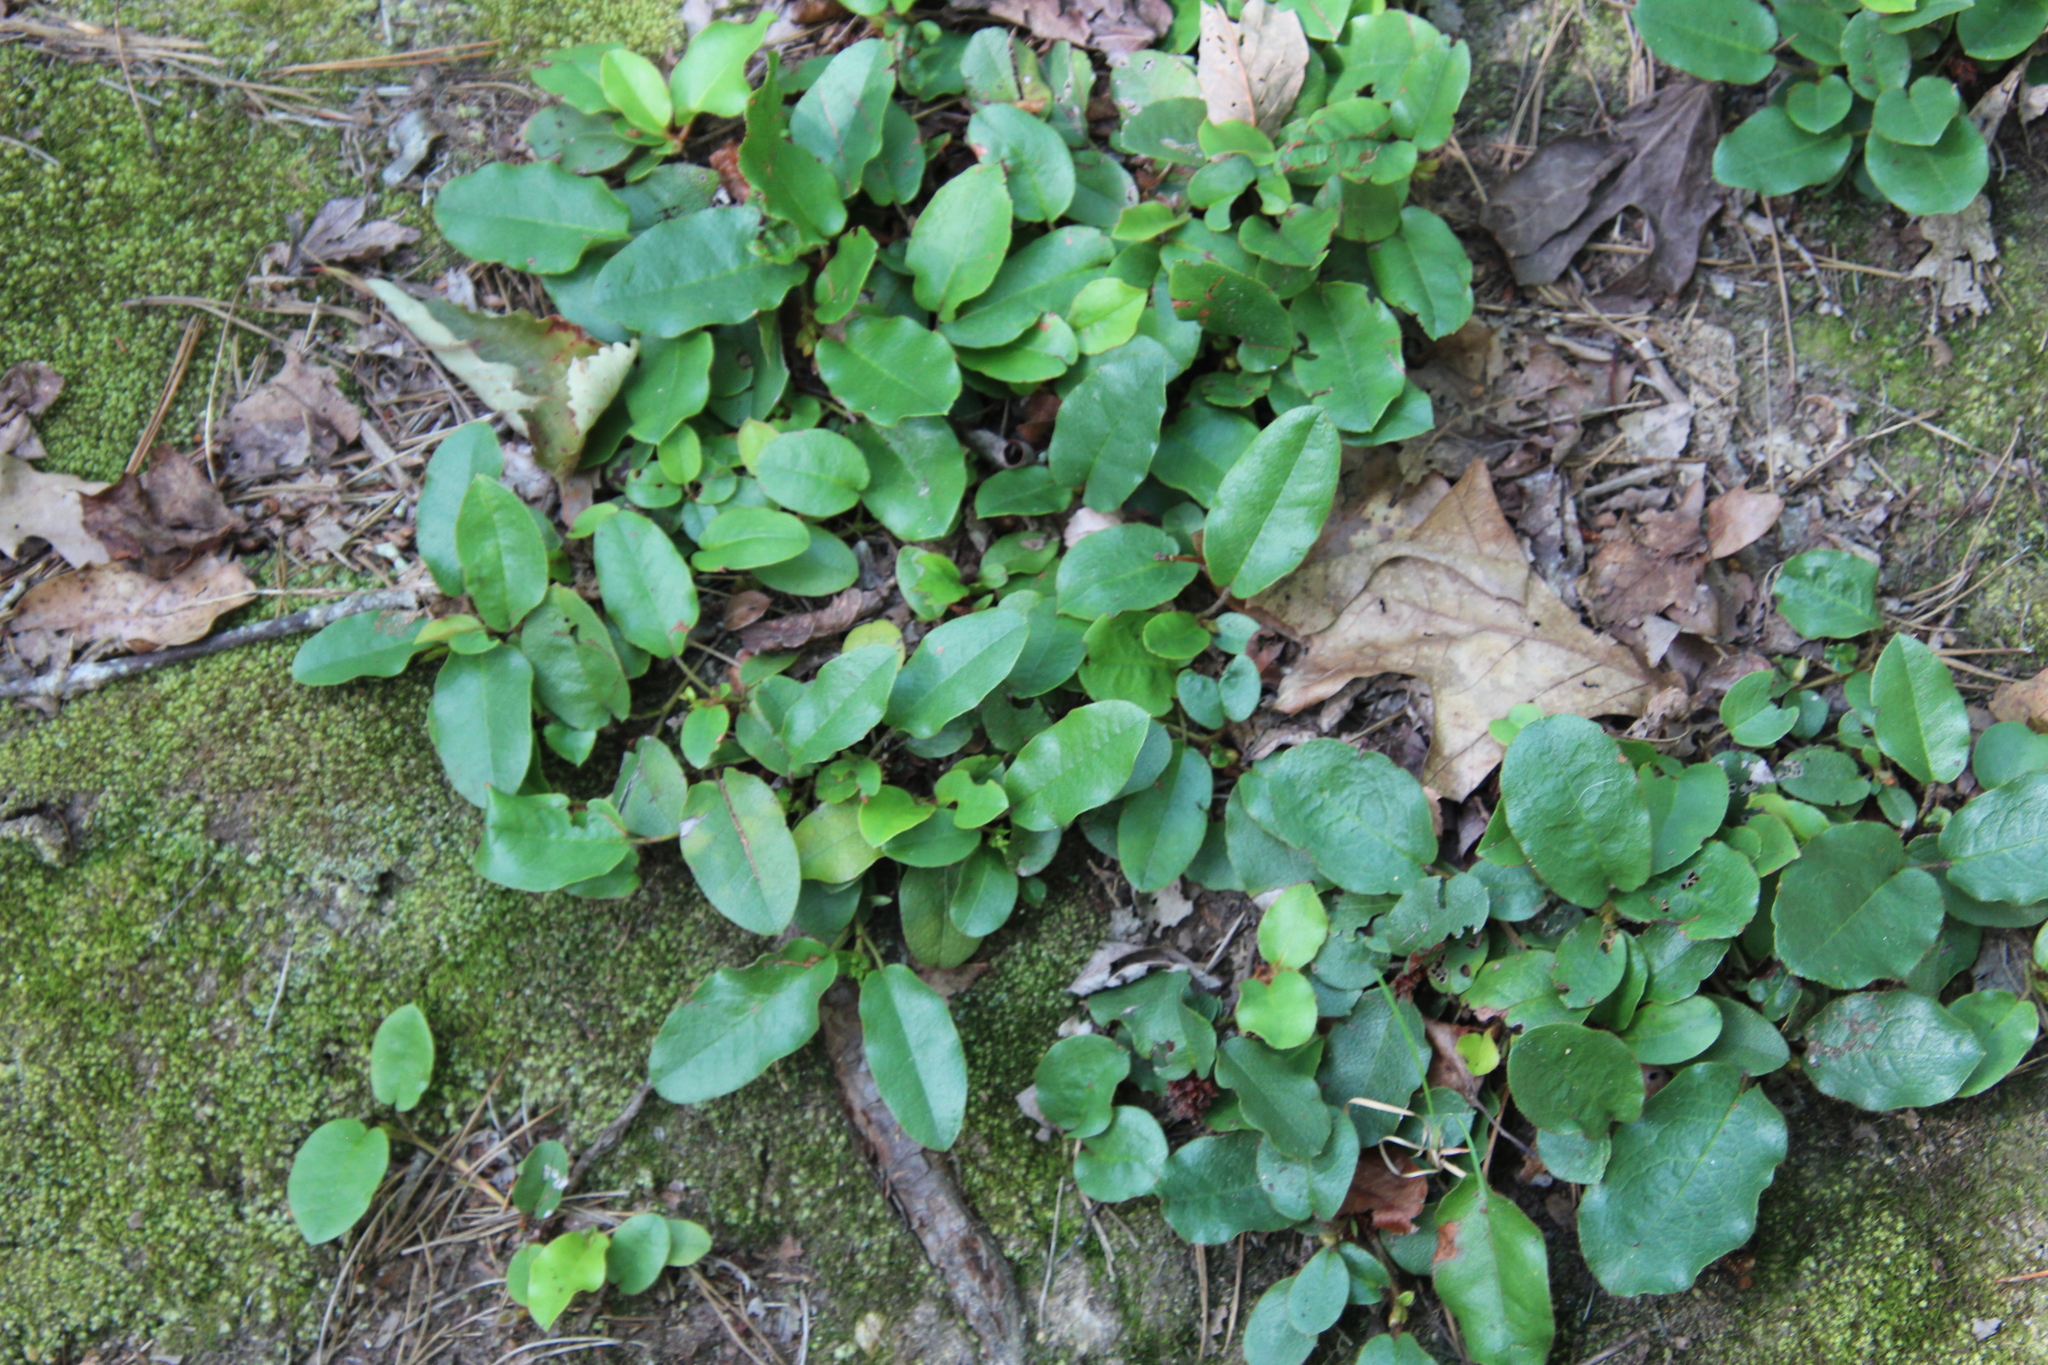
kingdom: Plantae
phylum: Tracheophyta
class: Magnoliopsida
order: Ericales
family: Ericaceae
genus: Epigaea
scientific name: Epigaea repens
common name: Gravelroot
